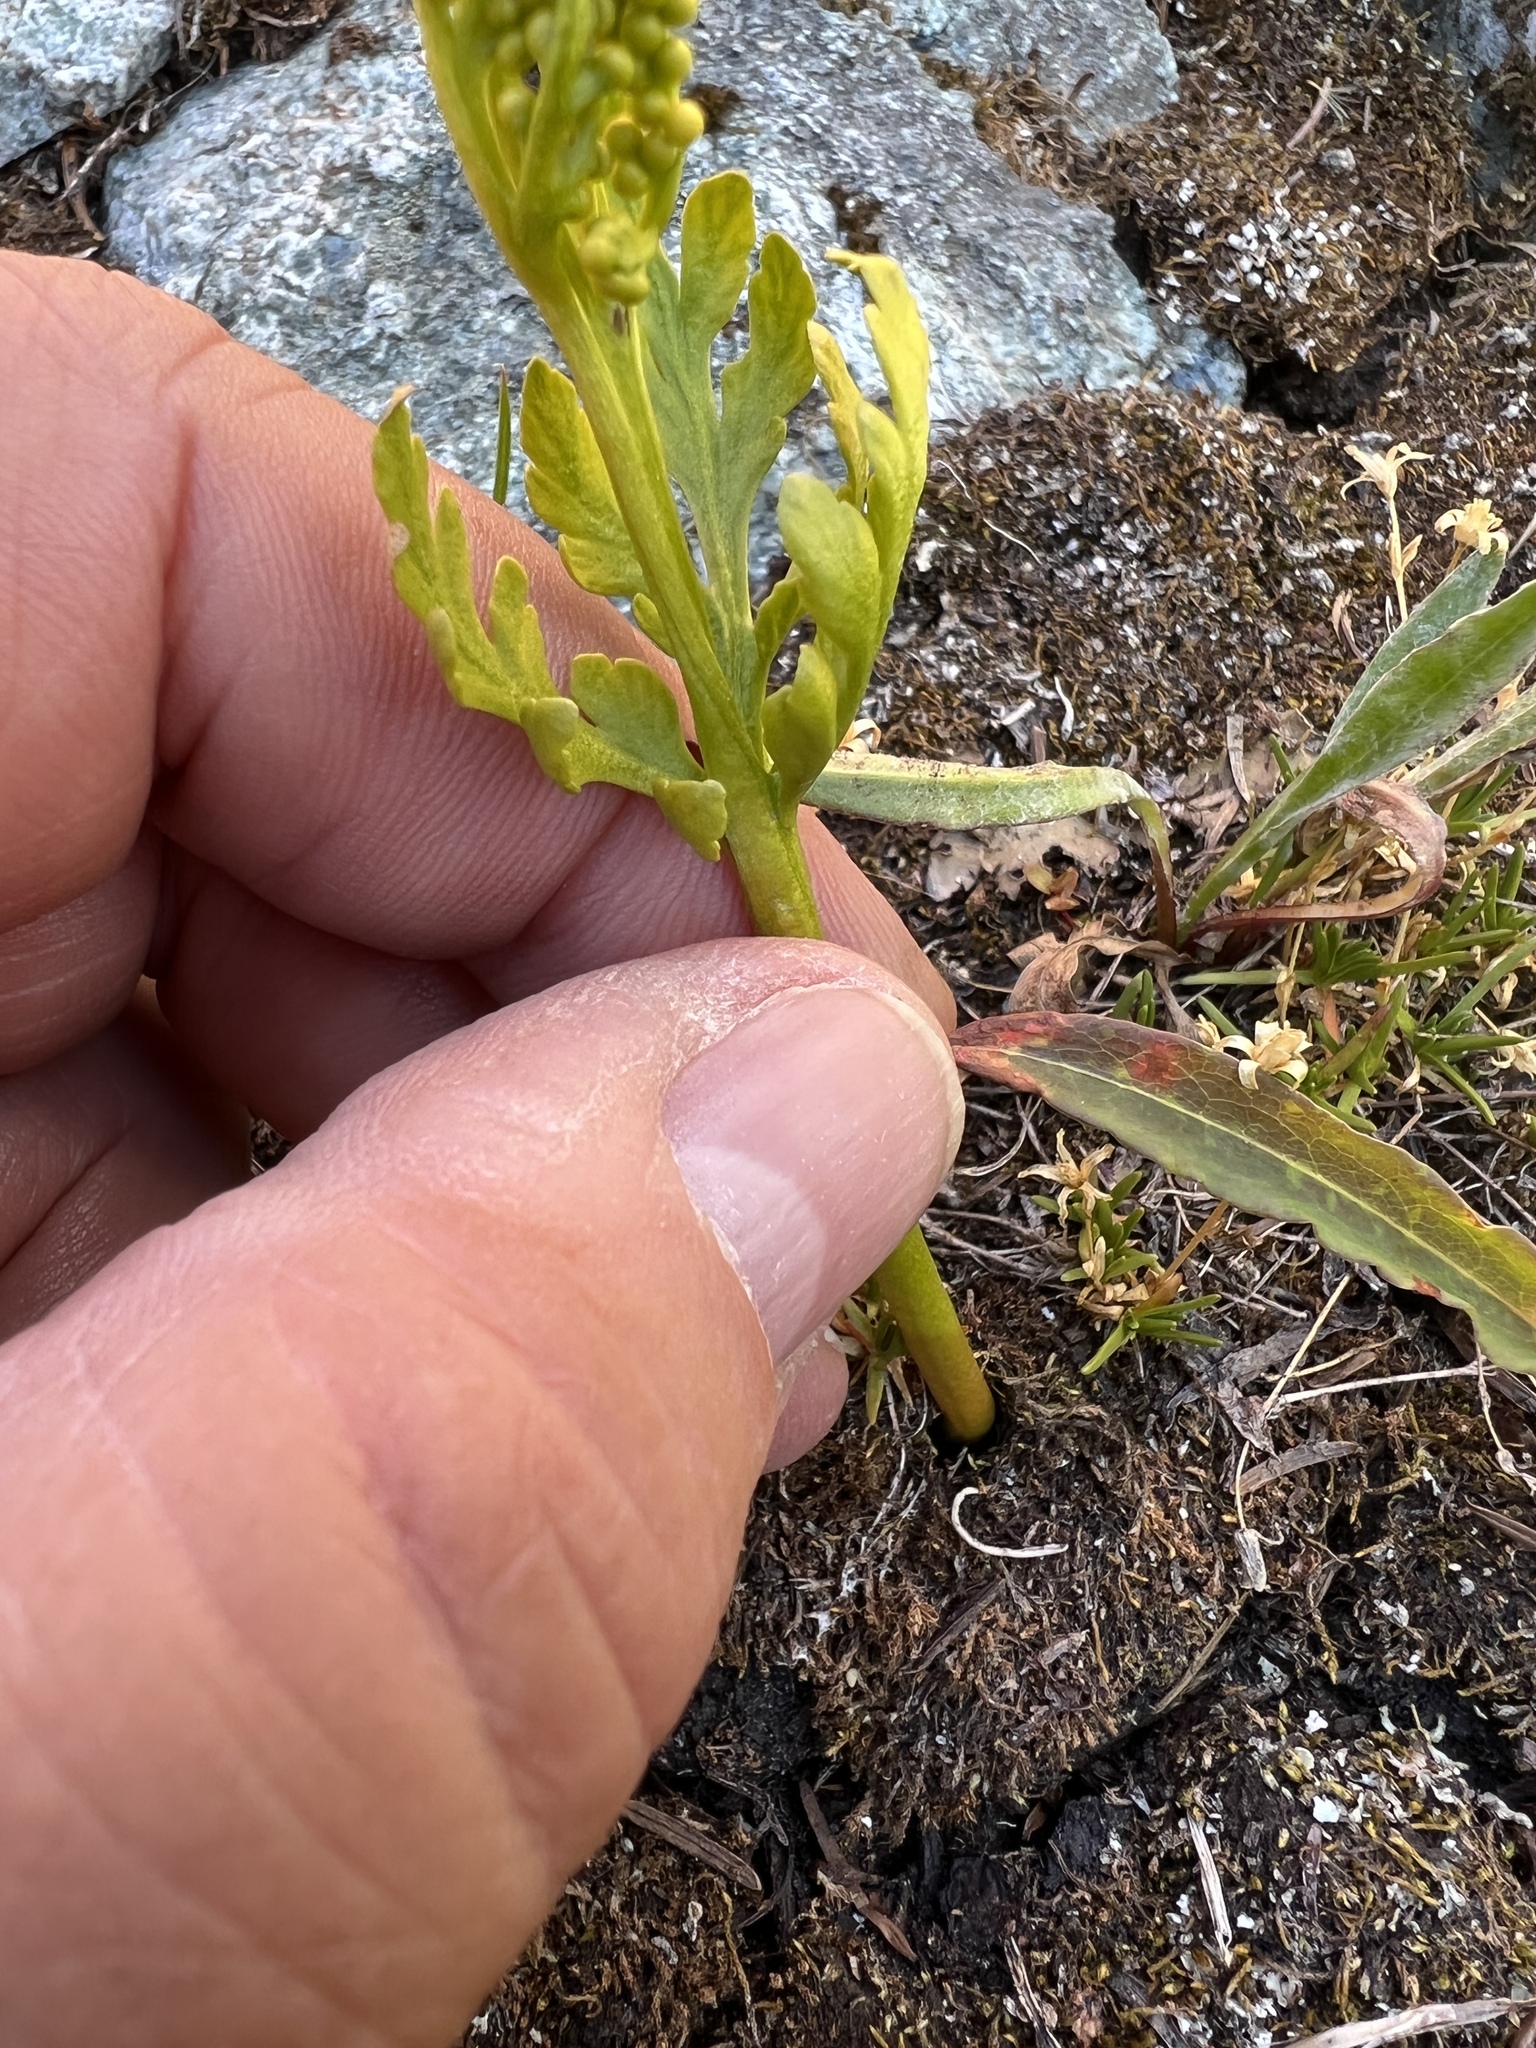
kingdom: Plantae
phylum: Tracheophyta
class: Polypodiopsida
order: Ophioglossales
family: Ophioglossaceae
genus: Botrychium
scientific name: Botrychium lanceolatum
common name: Lance-leaved moonwort
